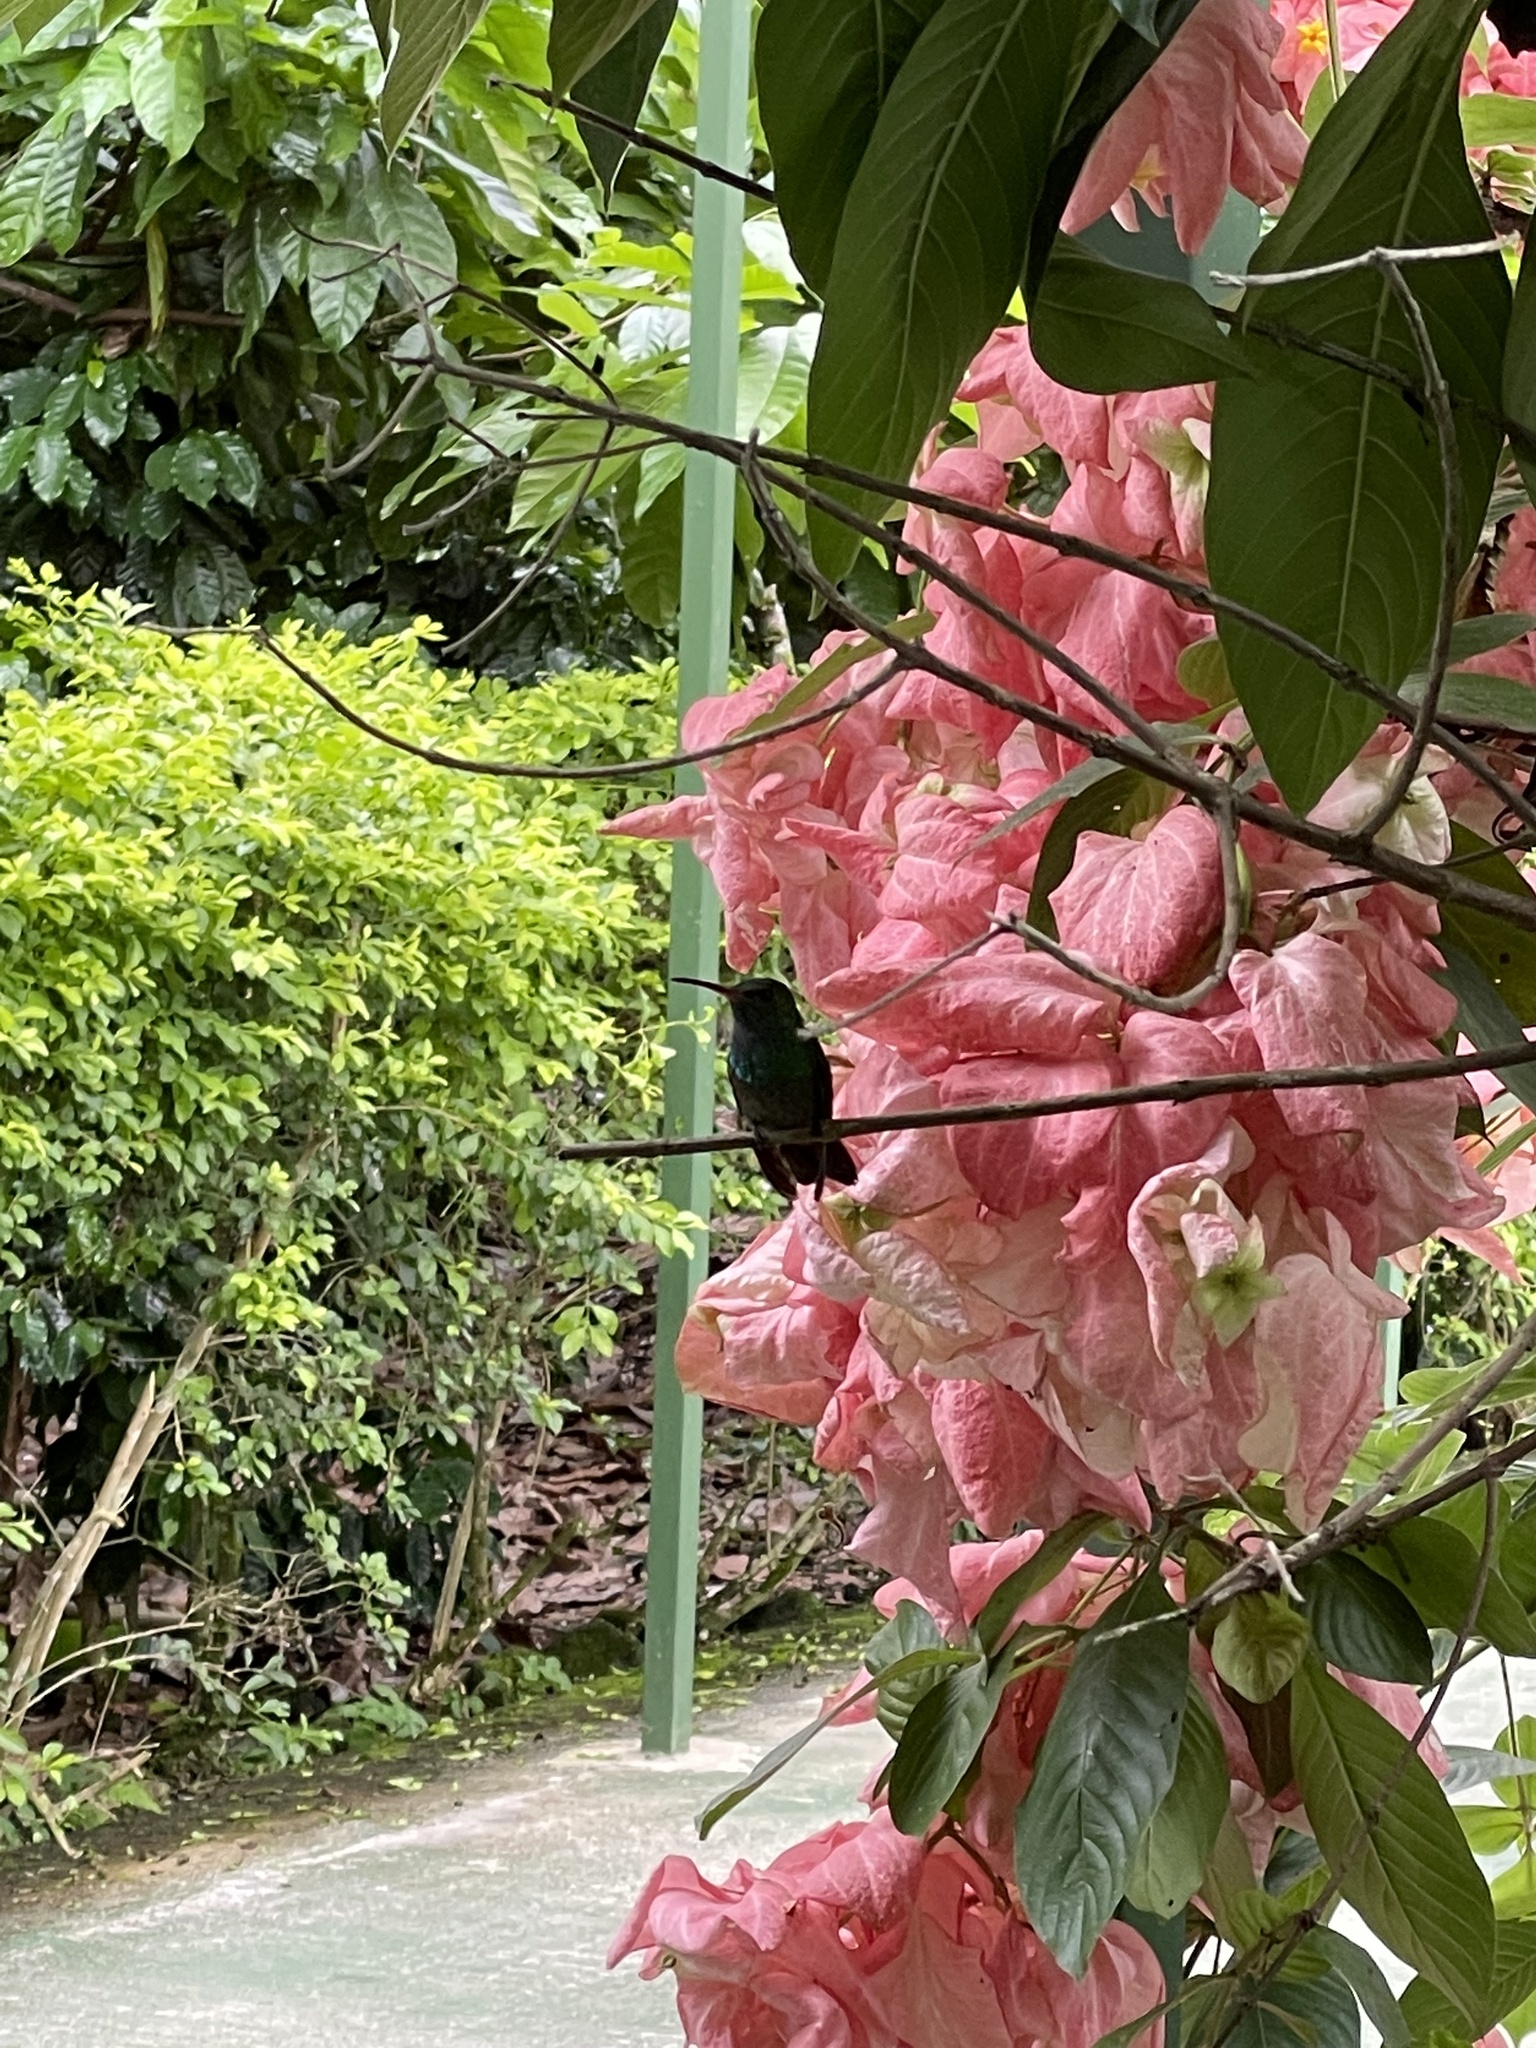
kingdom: Animalia
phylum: Chordata
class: Aves
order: Apodiformes
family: Trochilidae
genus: Amazilia
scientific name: Amazilia tzacatl
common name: Rufous-tailed hummingbird
